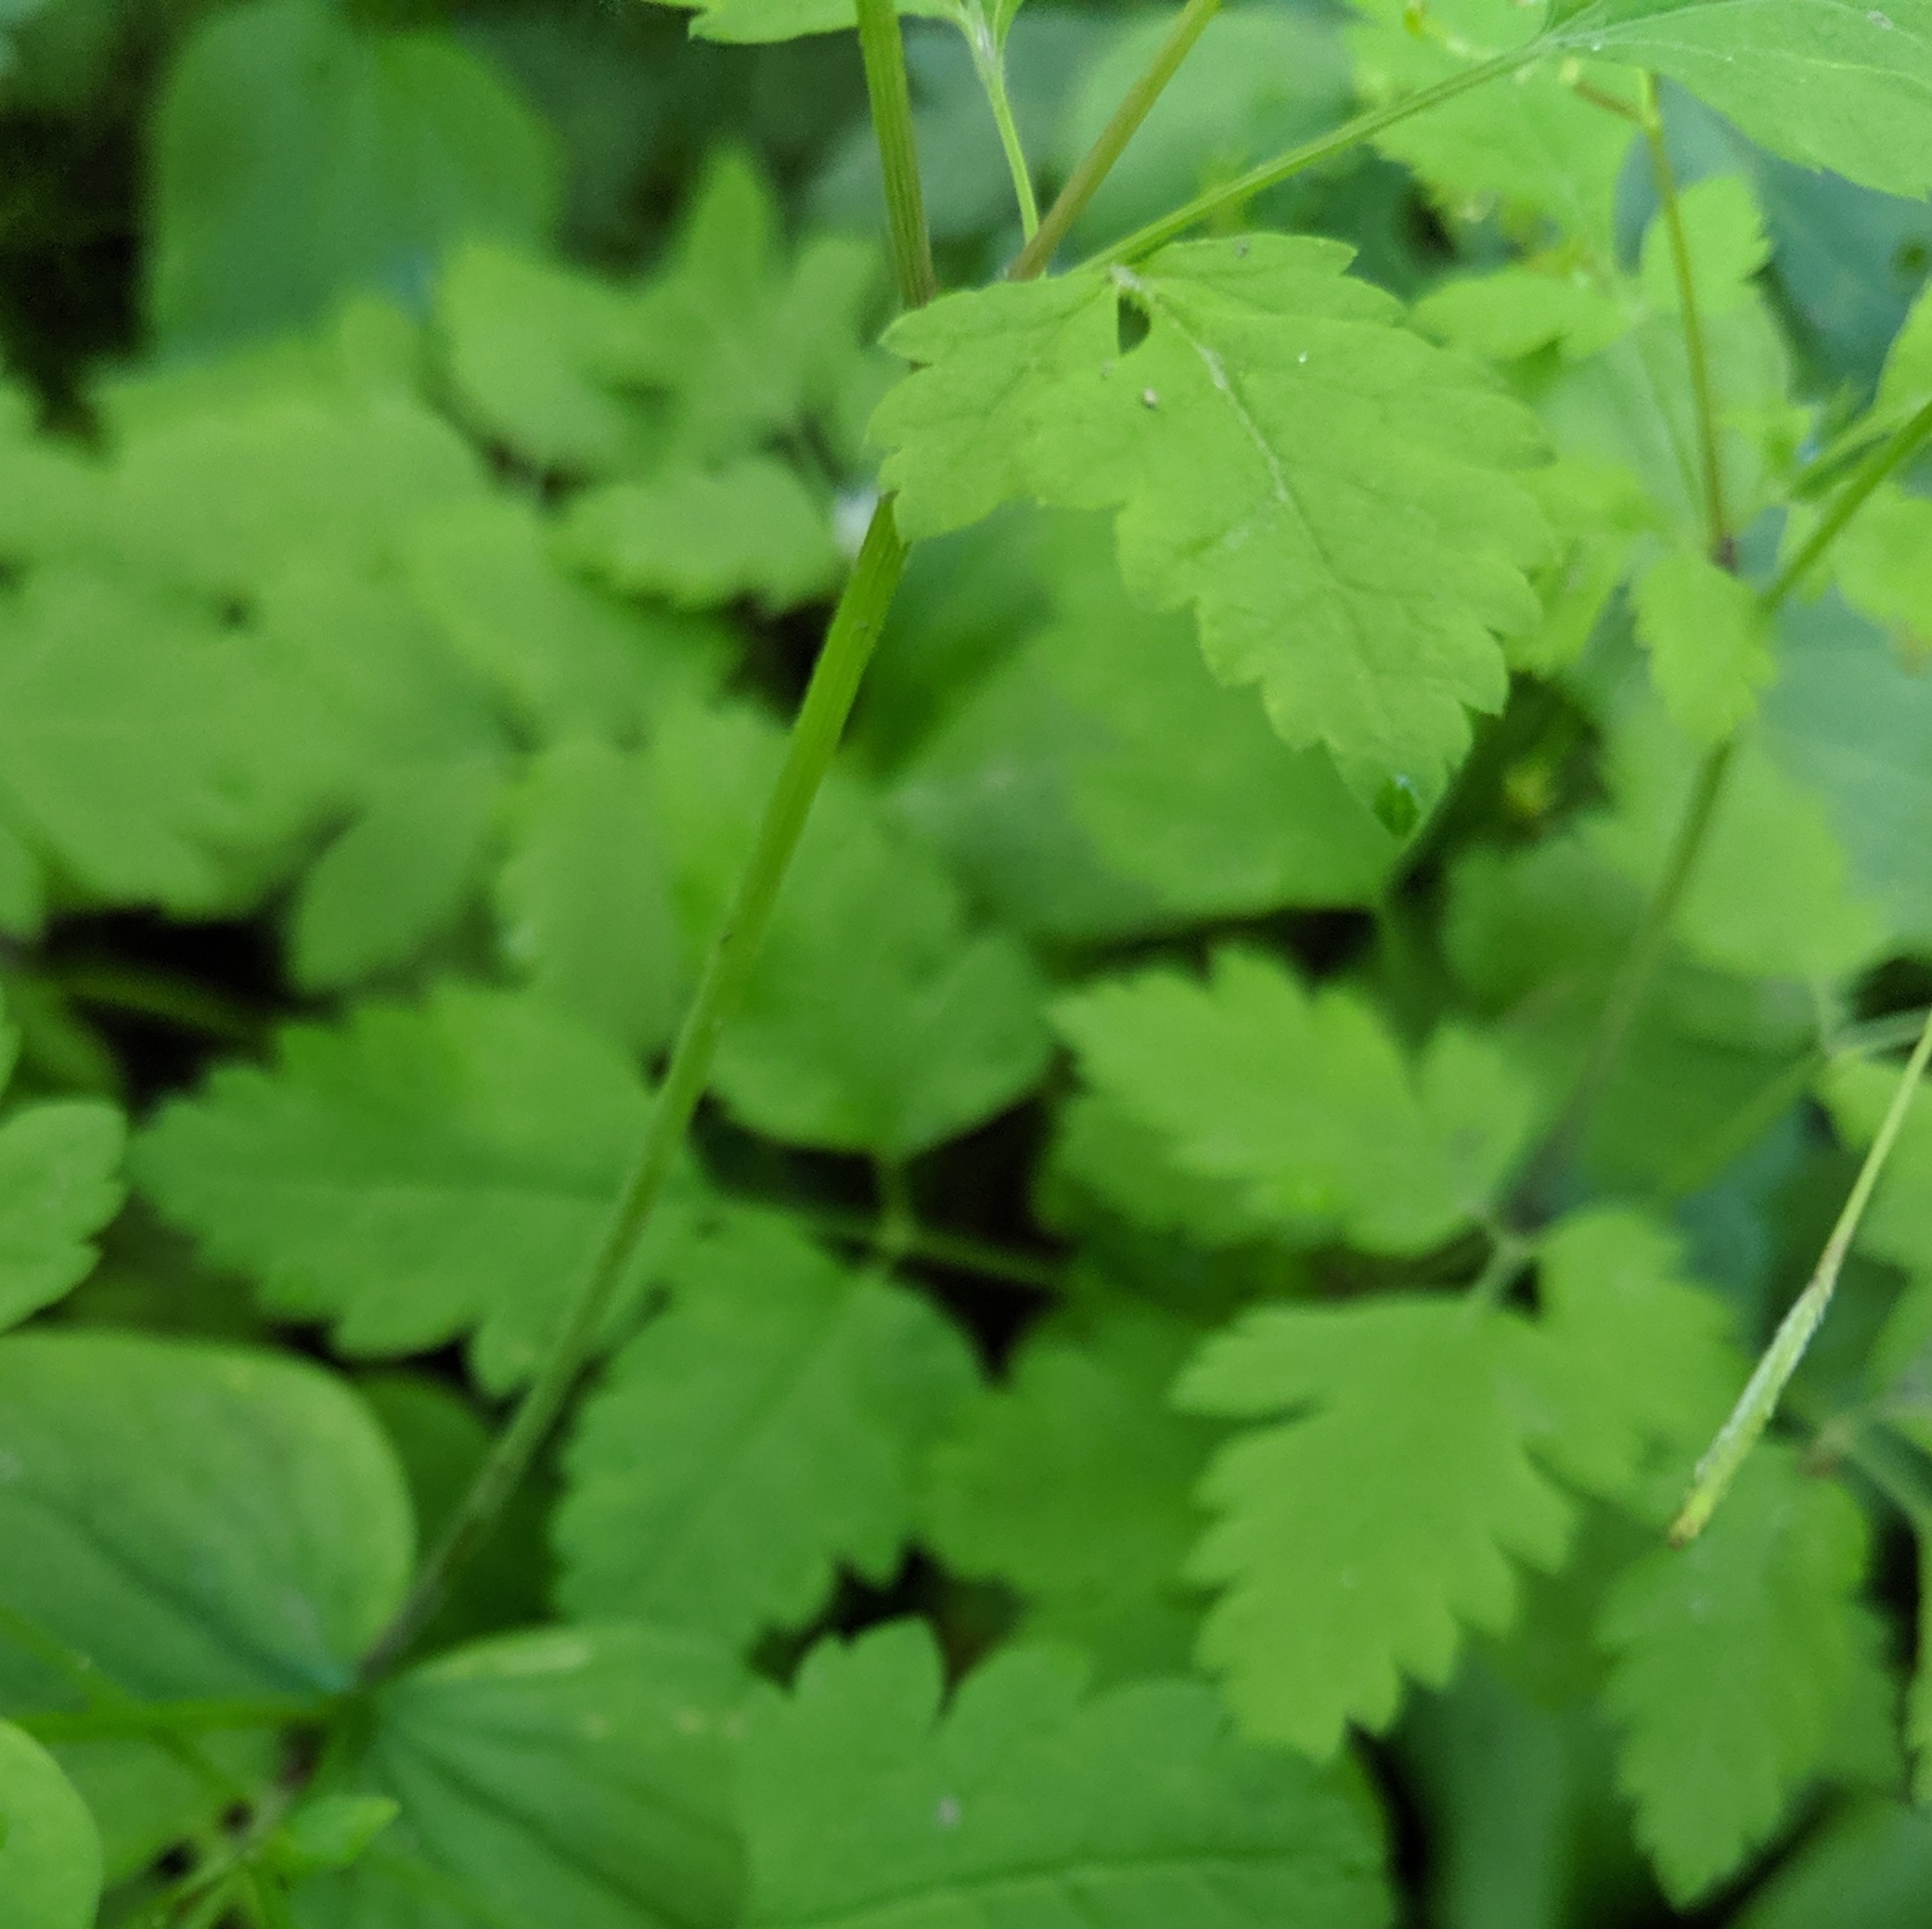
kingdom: Plantae
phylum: Tracheophyta
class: Magnoliopsida
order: Apiales
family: Apiaceae
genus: Osmorhiza
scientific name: Osmorhiza berteroi
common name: Mountain sweet cicely
